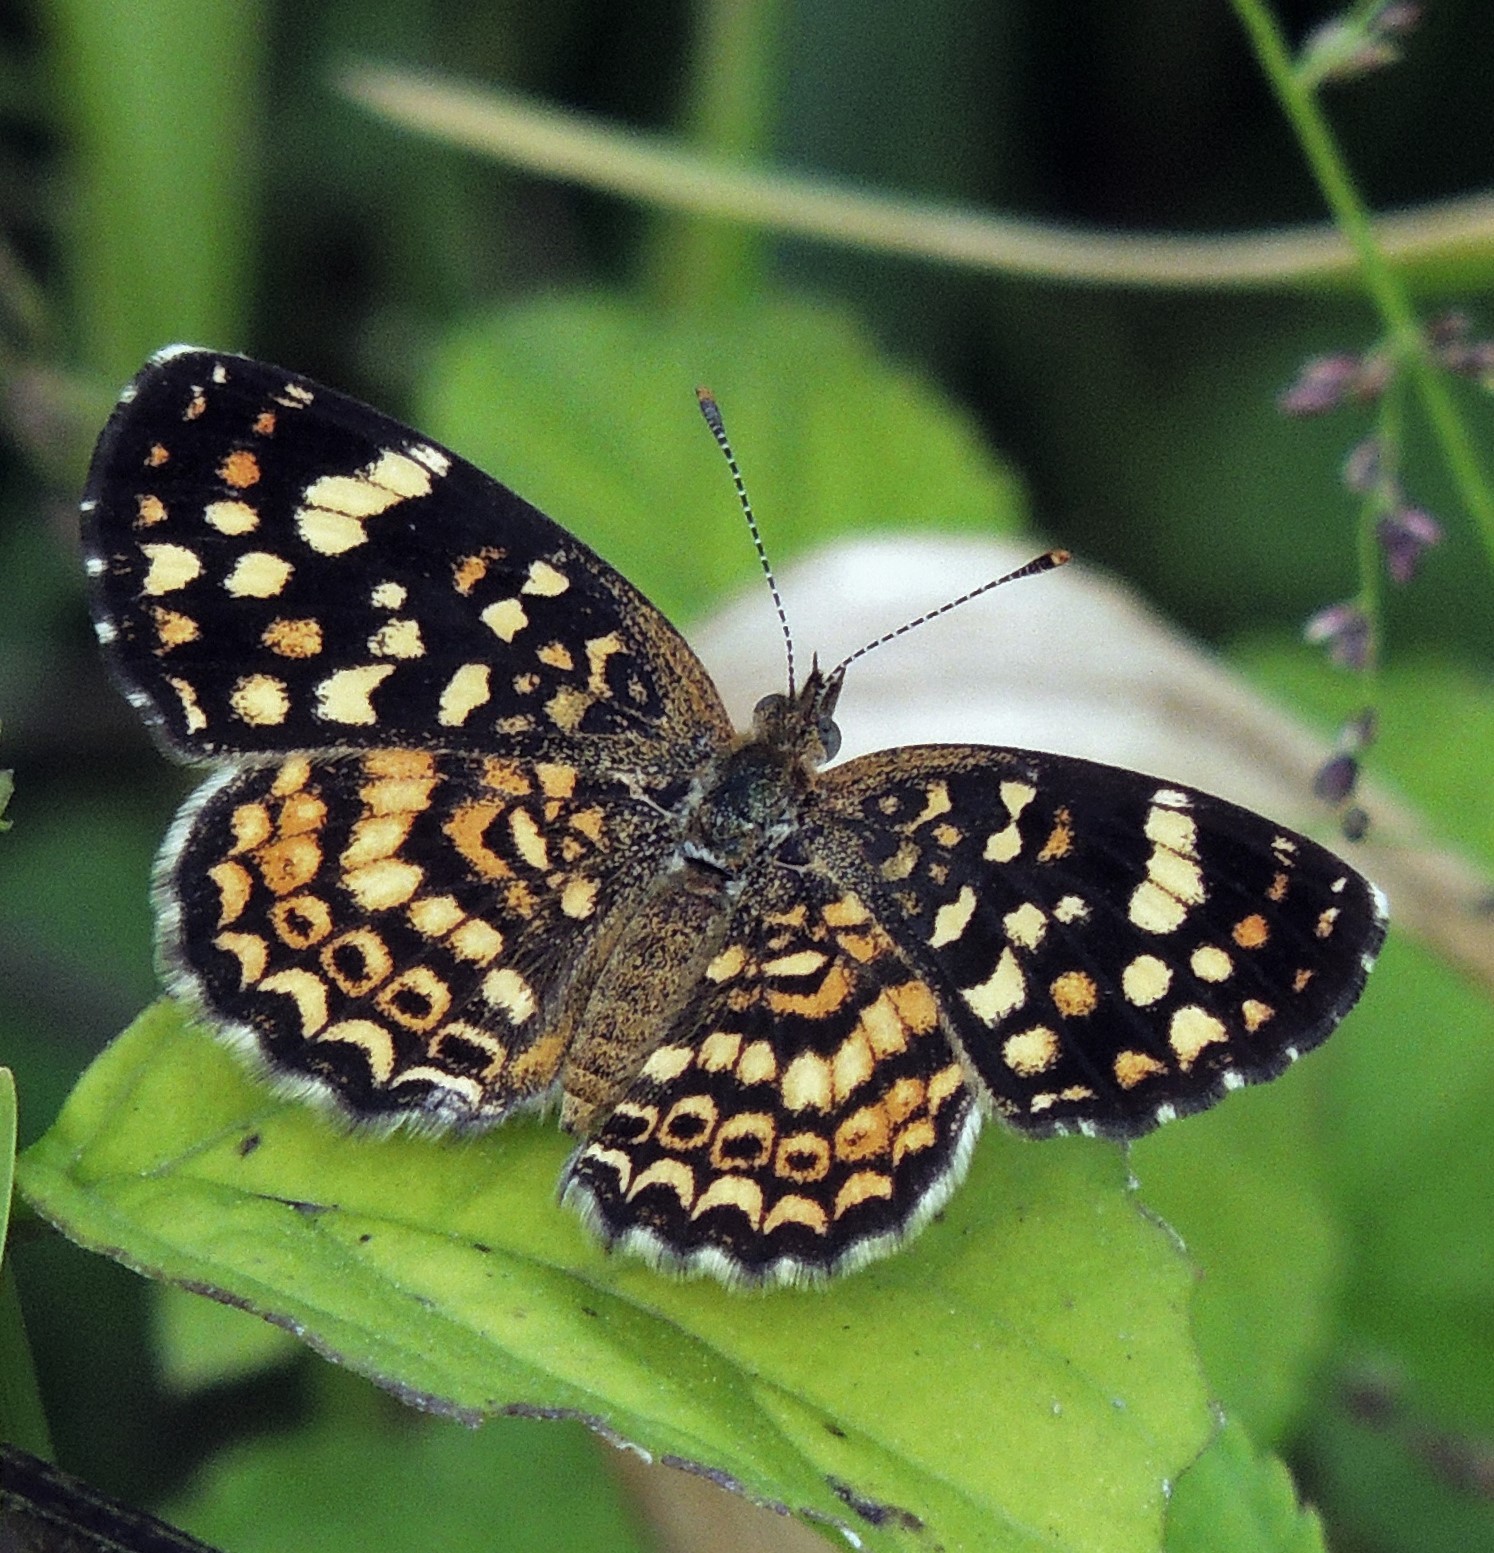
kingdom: Animalia
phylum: Arthropoda
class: Insecta
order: Lepidoptera
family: Nymphalidae
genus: Phystis
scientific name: Phystis simois
